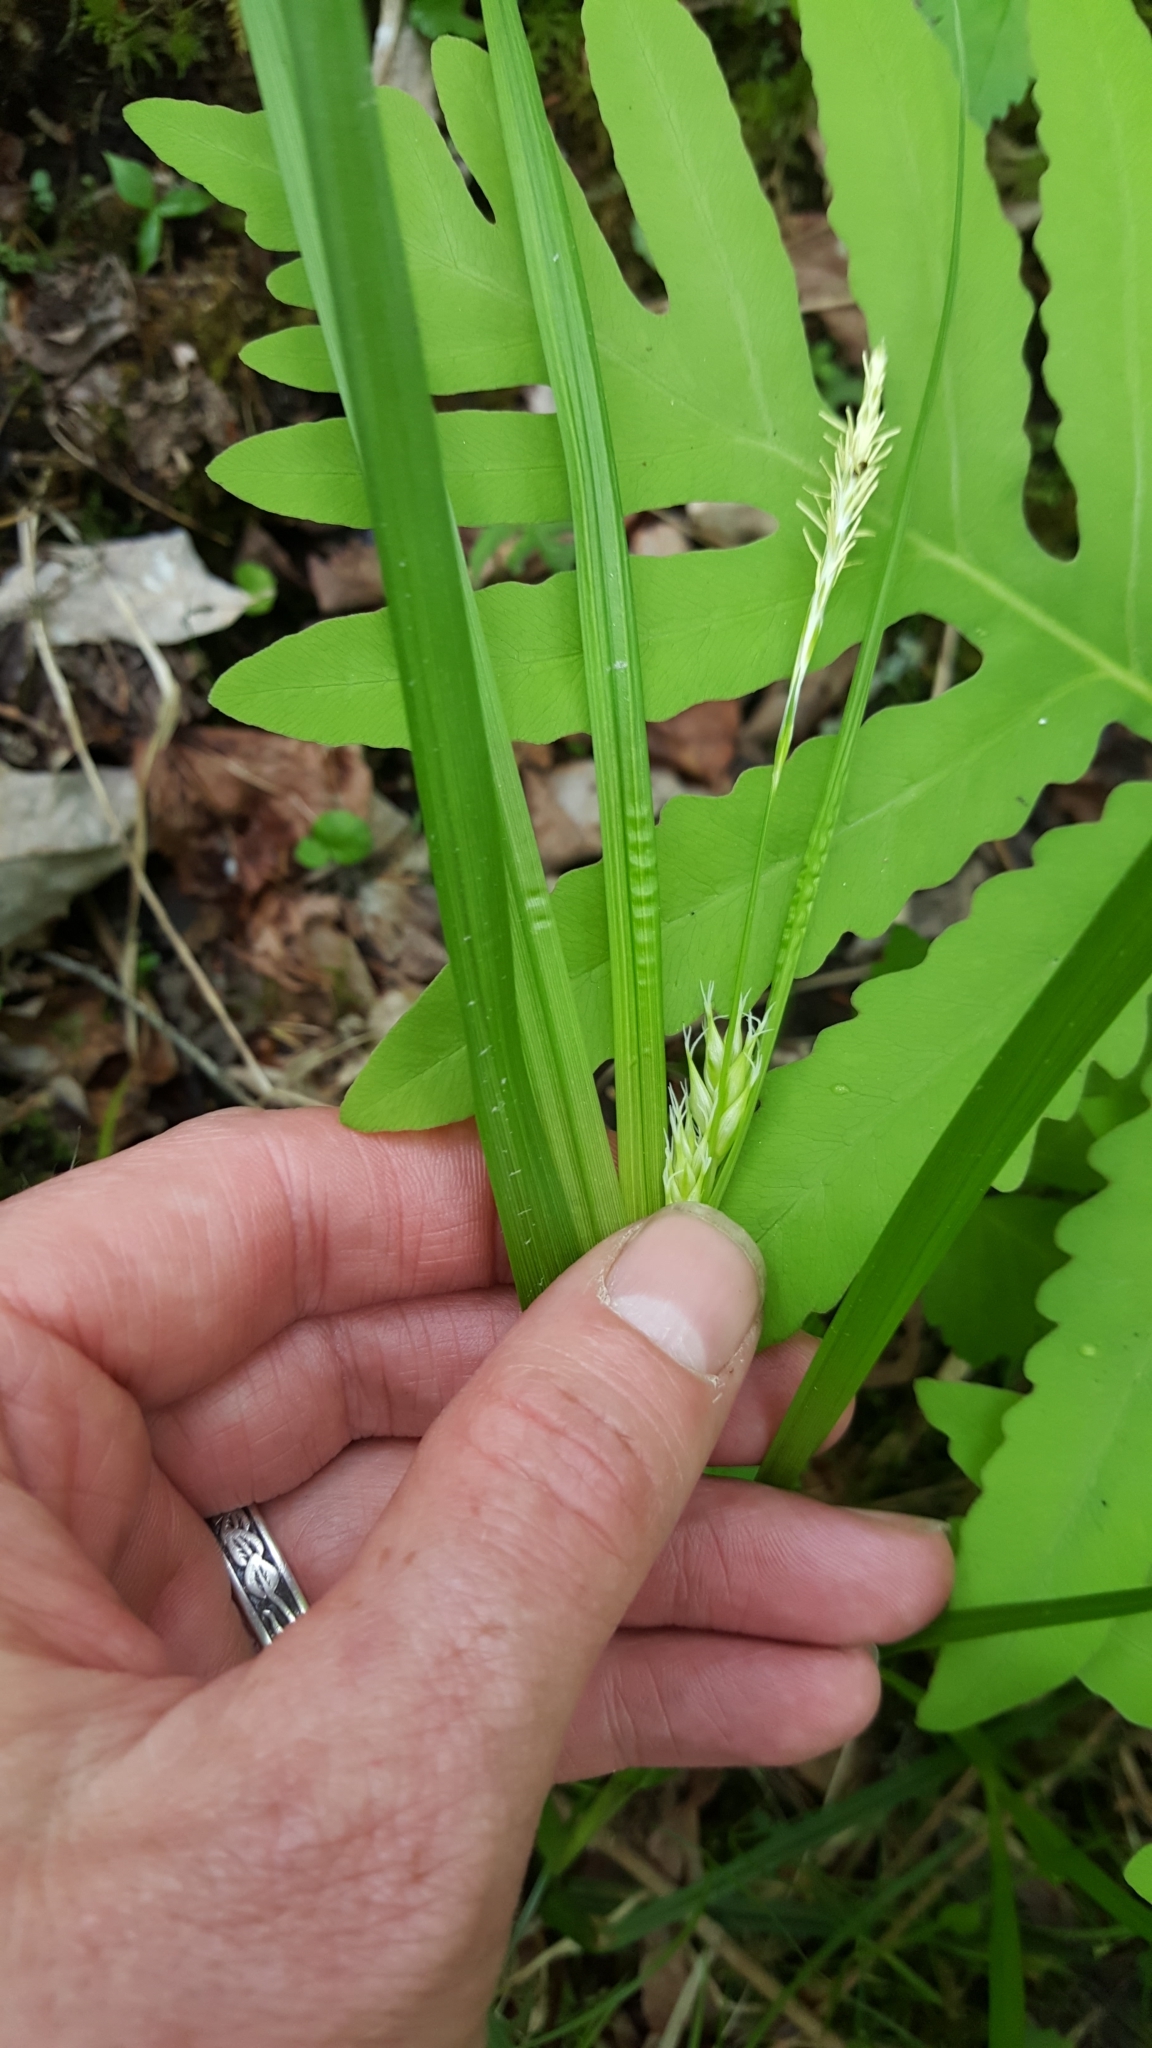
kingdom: Plantae
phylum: Tracheophyta
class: Liliopsida
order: Poales
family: Cyperaceae
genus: Carex
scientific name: Carex intumescens
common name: Greater bladder sedge
